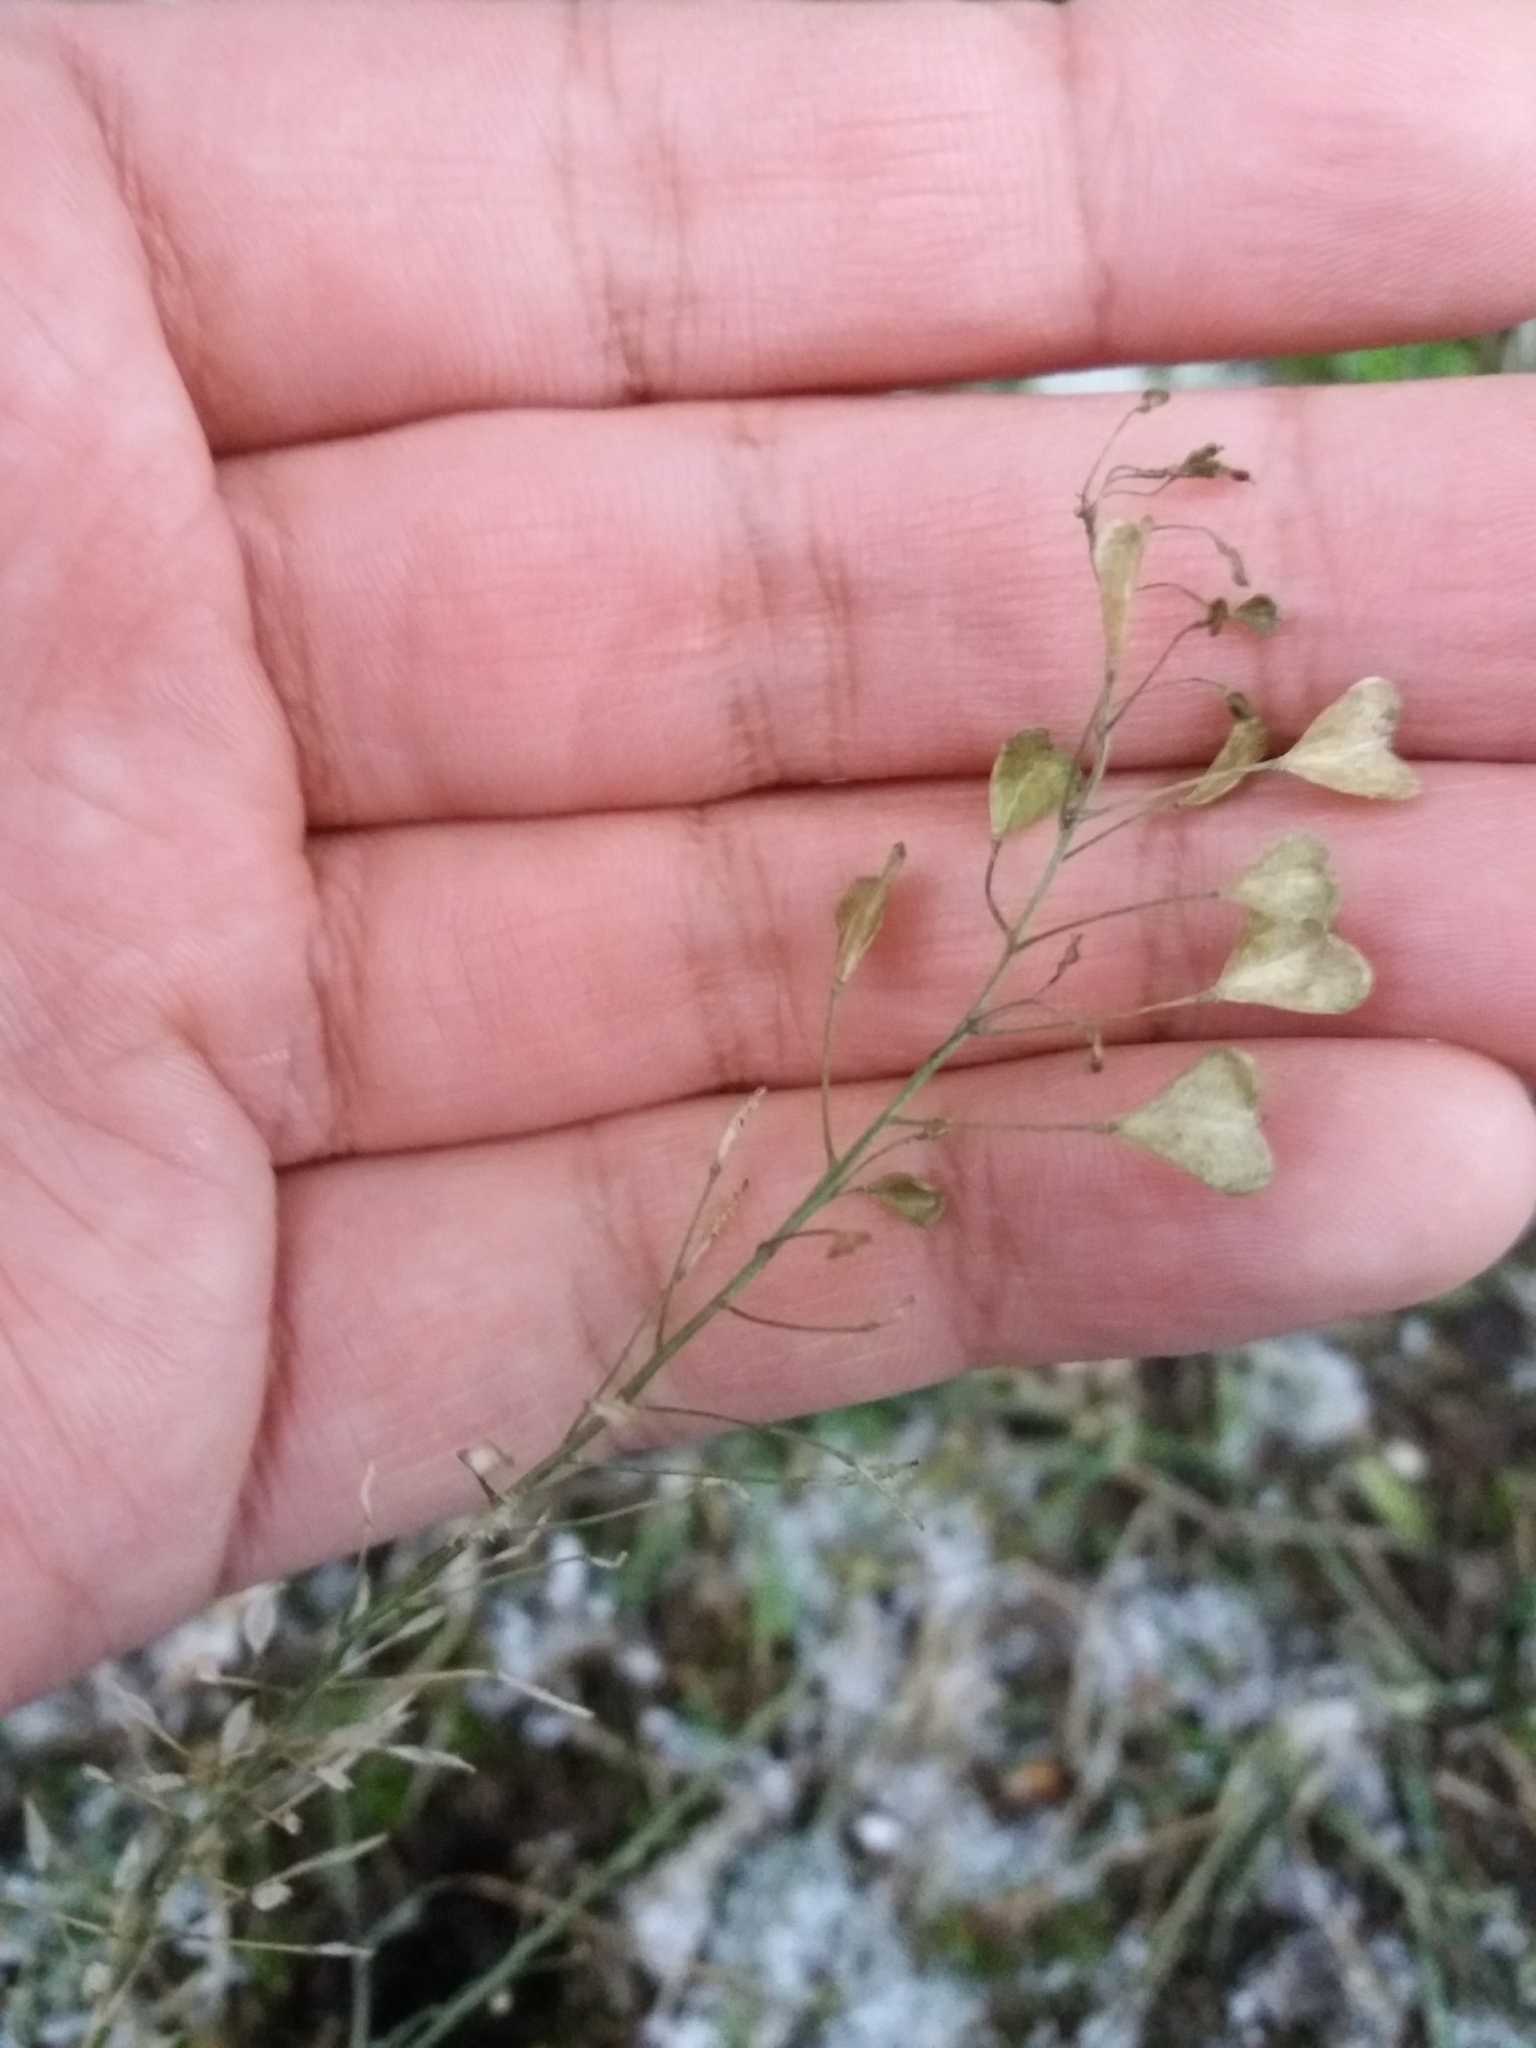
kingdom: Plantae
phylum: Tracheophyta
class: Magnoliopsida
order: Brassicales
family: Brassicaceae
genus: Capsella
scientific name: Capsella bursa-pastoris
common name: Shepherd's purse
